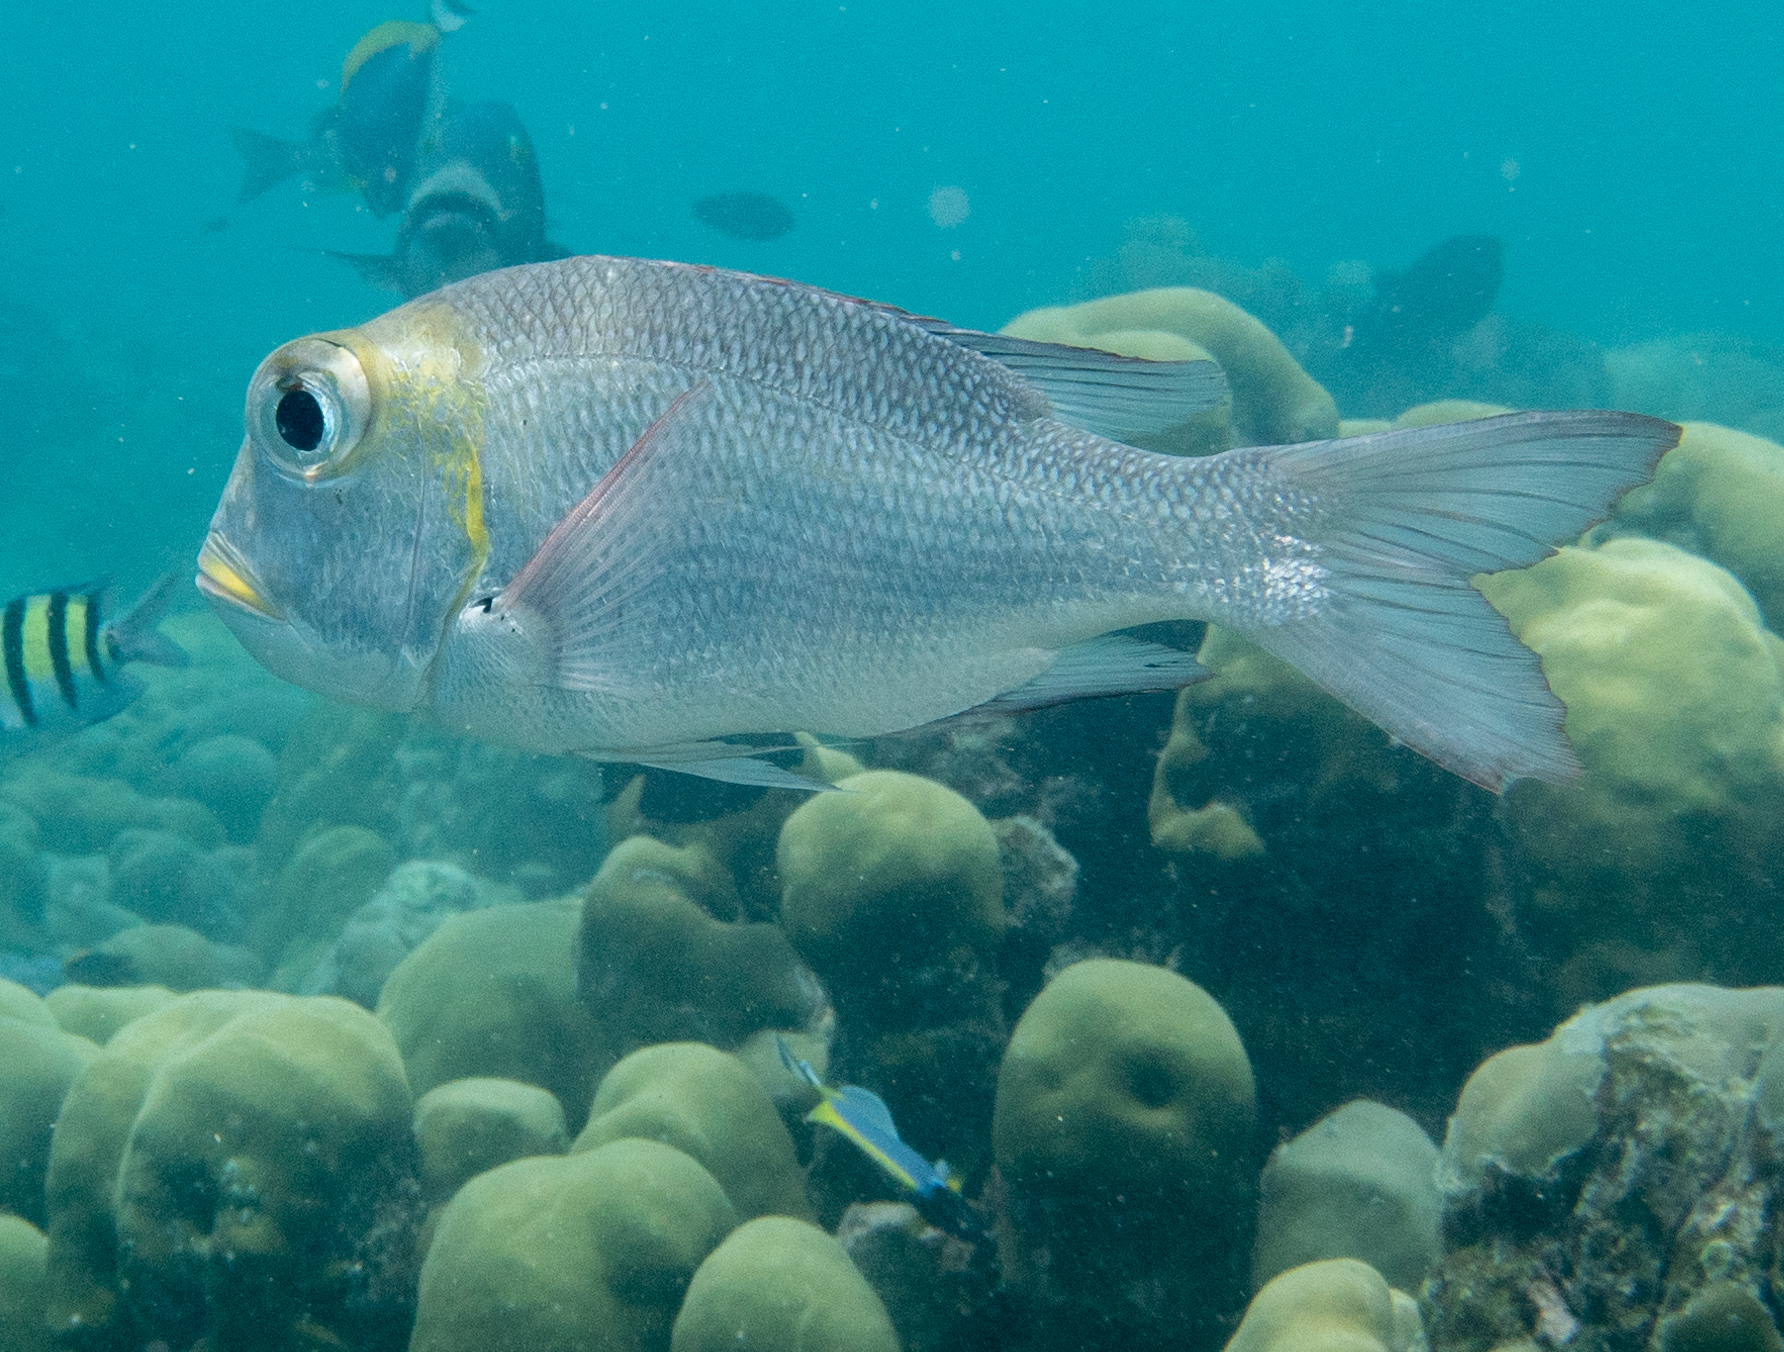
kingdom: Animalia
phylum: Chordata
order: Perciformes
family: Lethrinidae
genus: Monotaxis
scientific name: Monotaxis grandoculis
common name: Bigeye emperor
